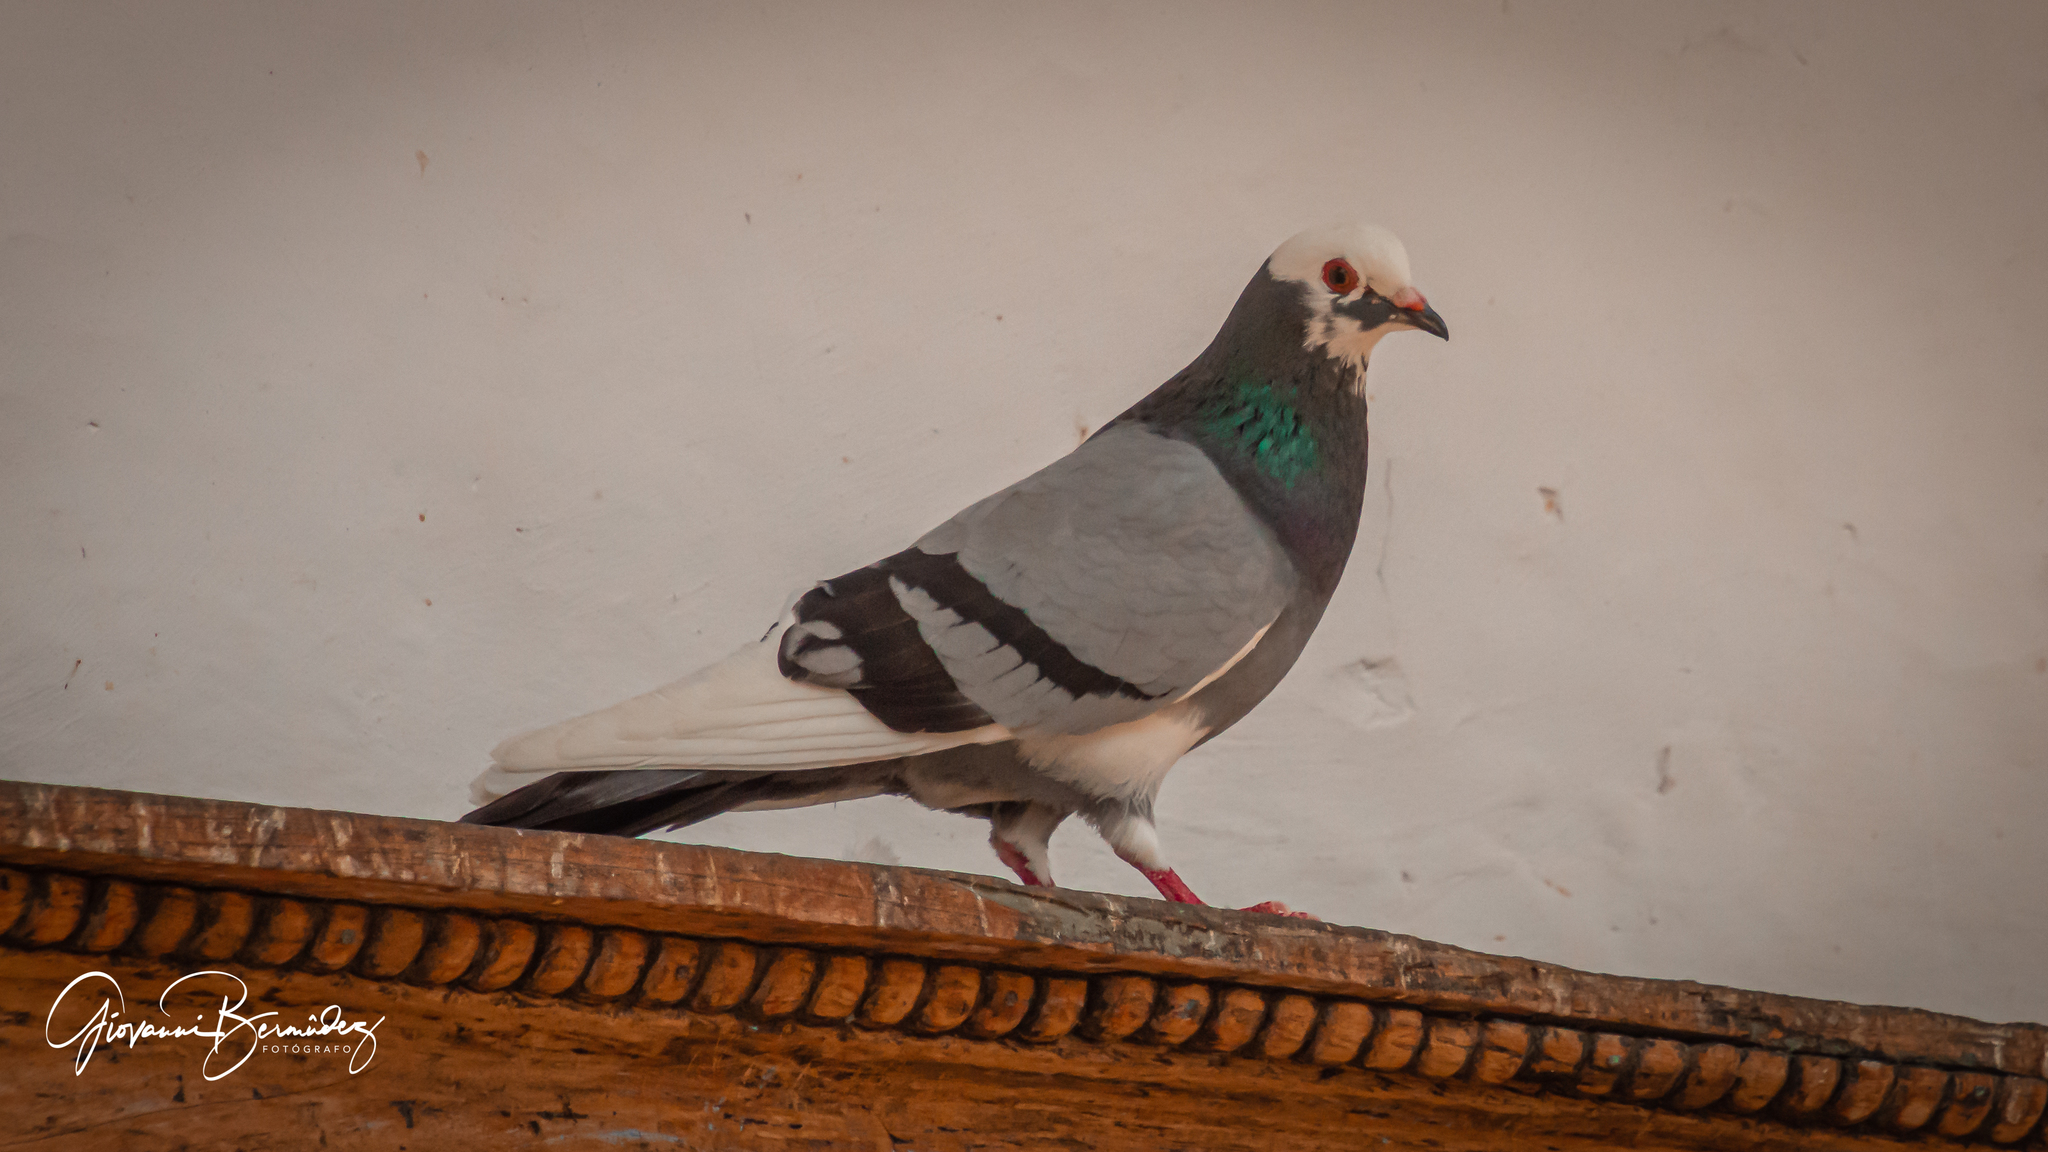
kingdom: Animalia
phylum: Chordata
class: Aves
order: Columbiformes
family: Columbidae
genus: Columba
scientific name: Columba livia
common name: Rock pigeon
